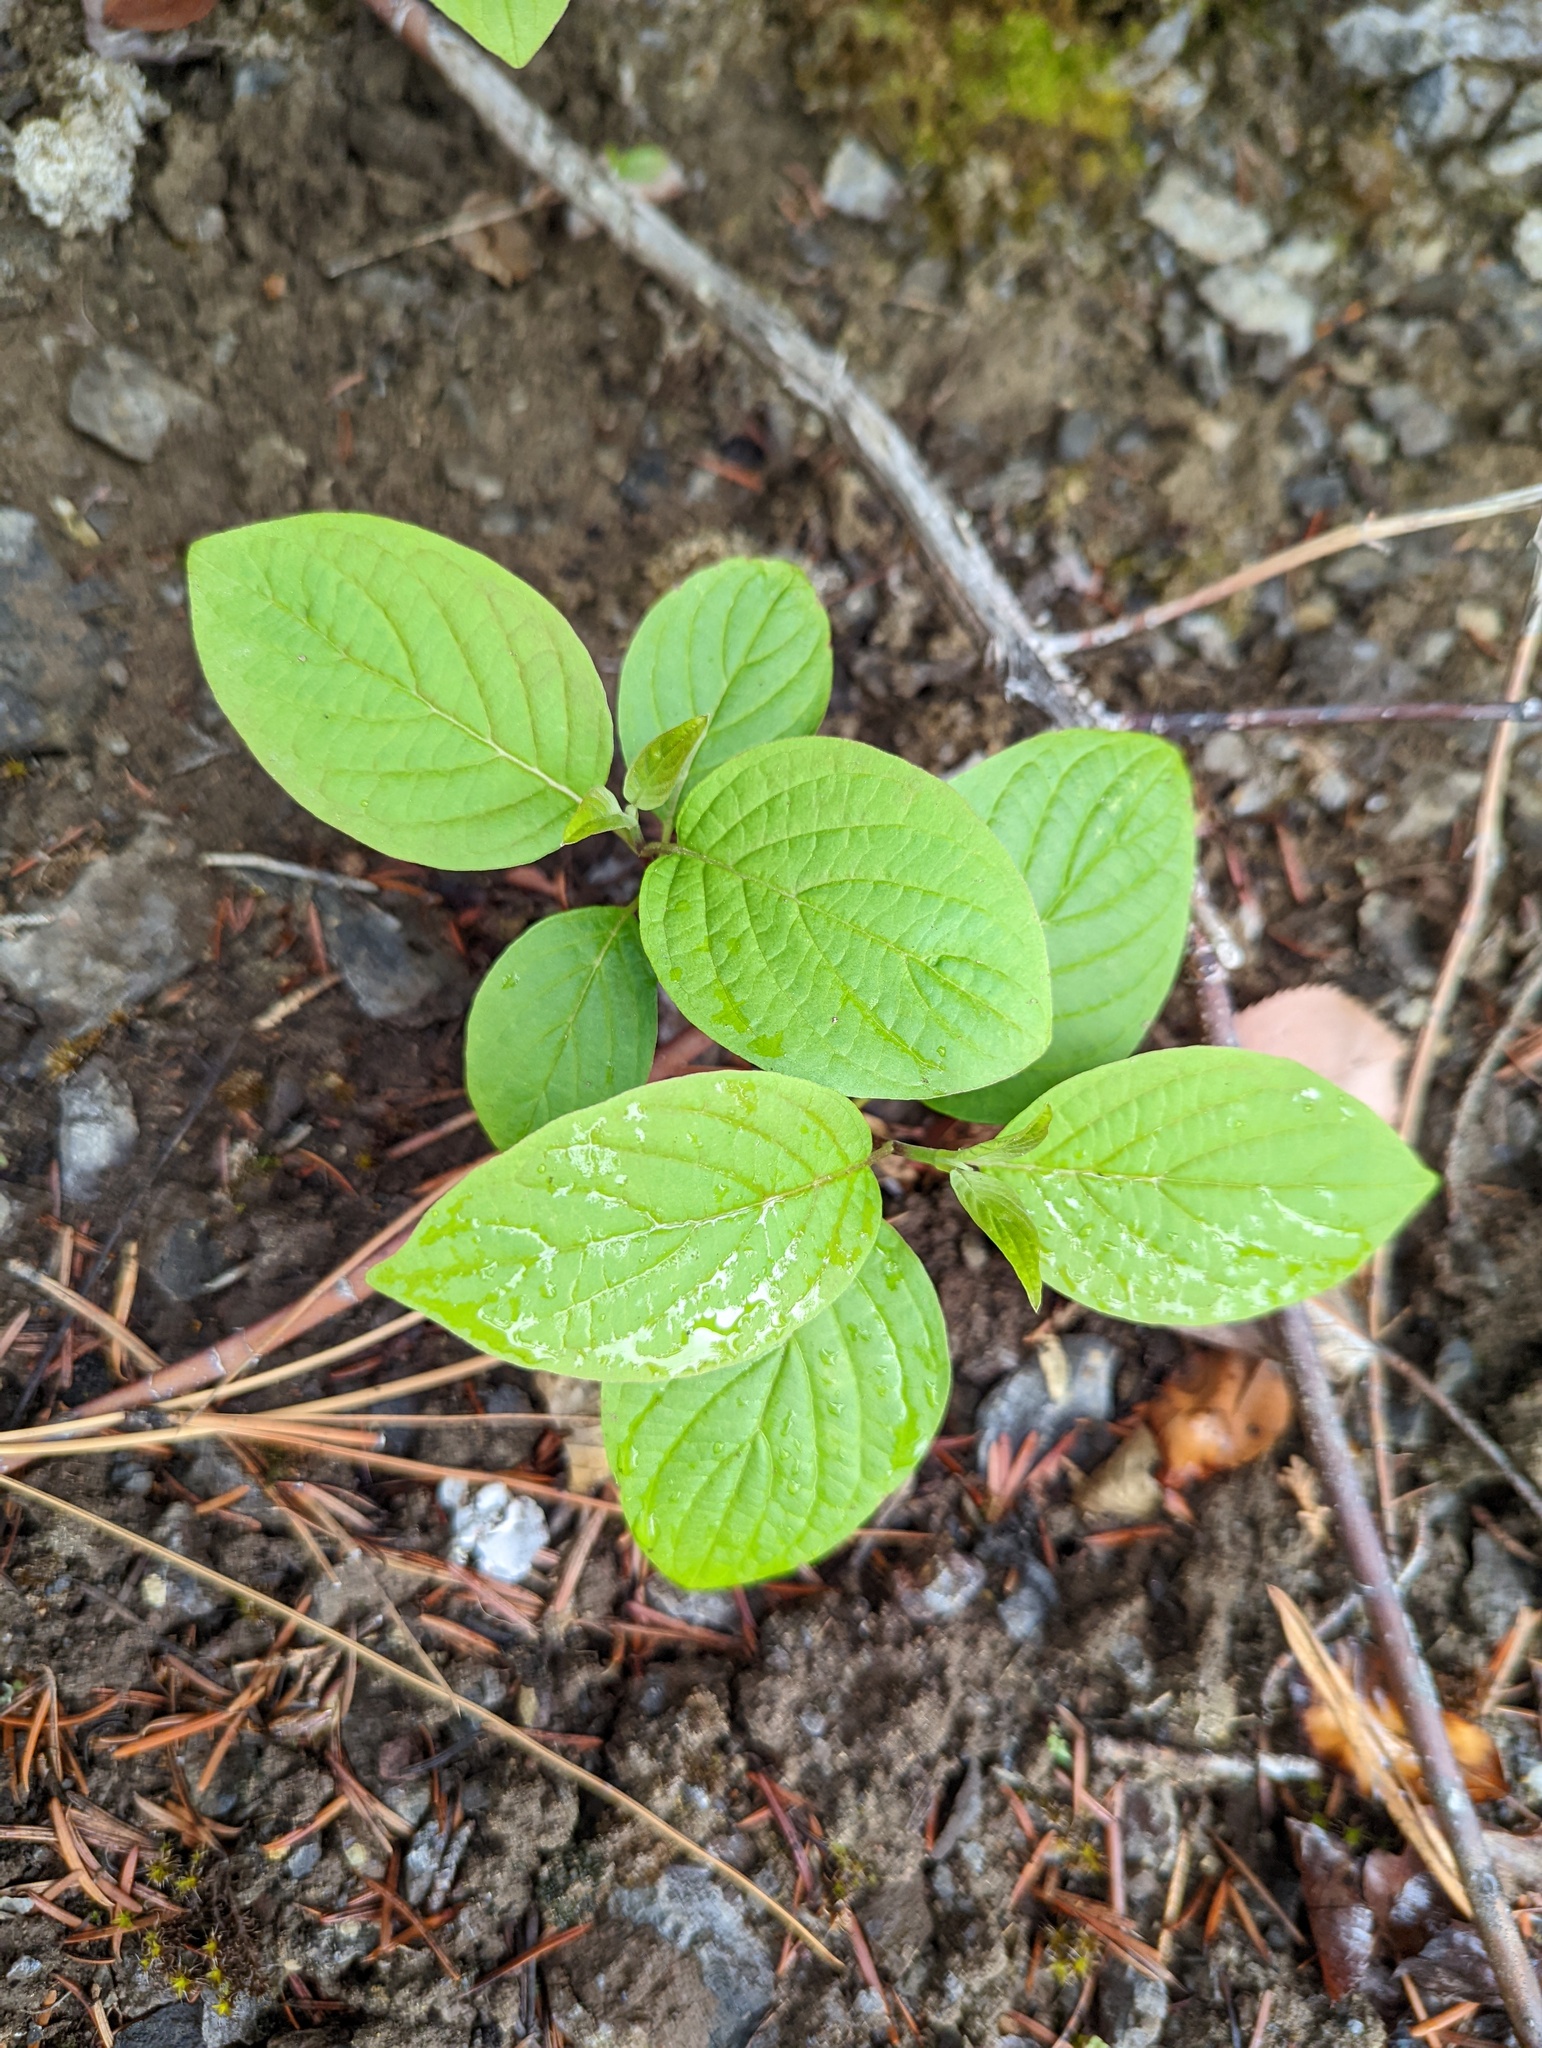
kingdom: Plantae
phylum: Tracheophyta
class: Magnoliopsida
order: Cornales
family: Cornaceae
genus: Cornus
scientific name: Cornus sericea
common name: Red-osier dogwood
